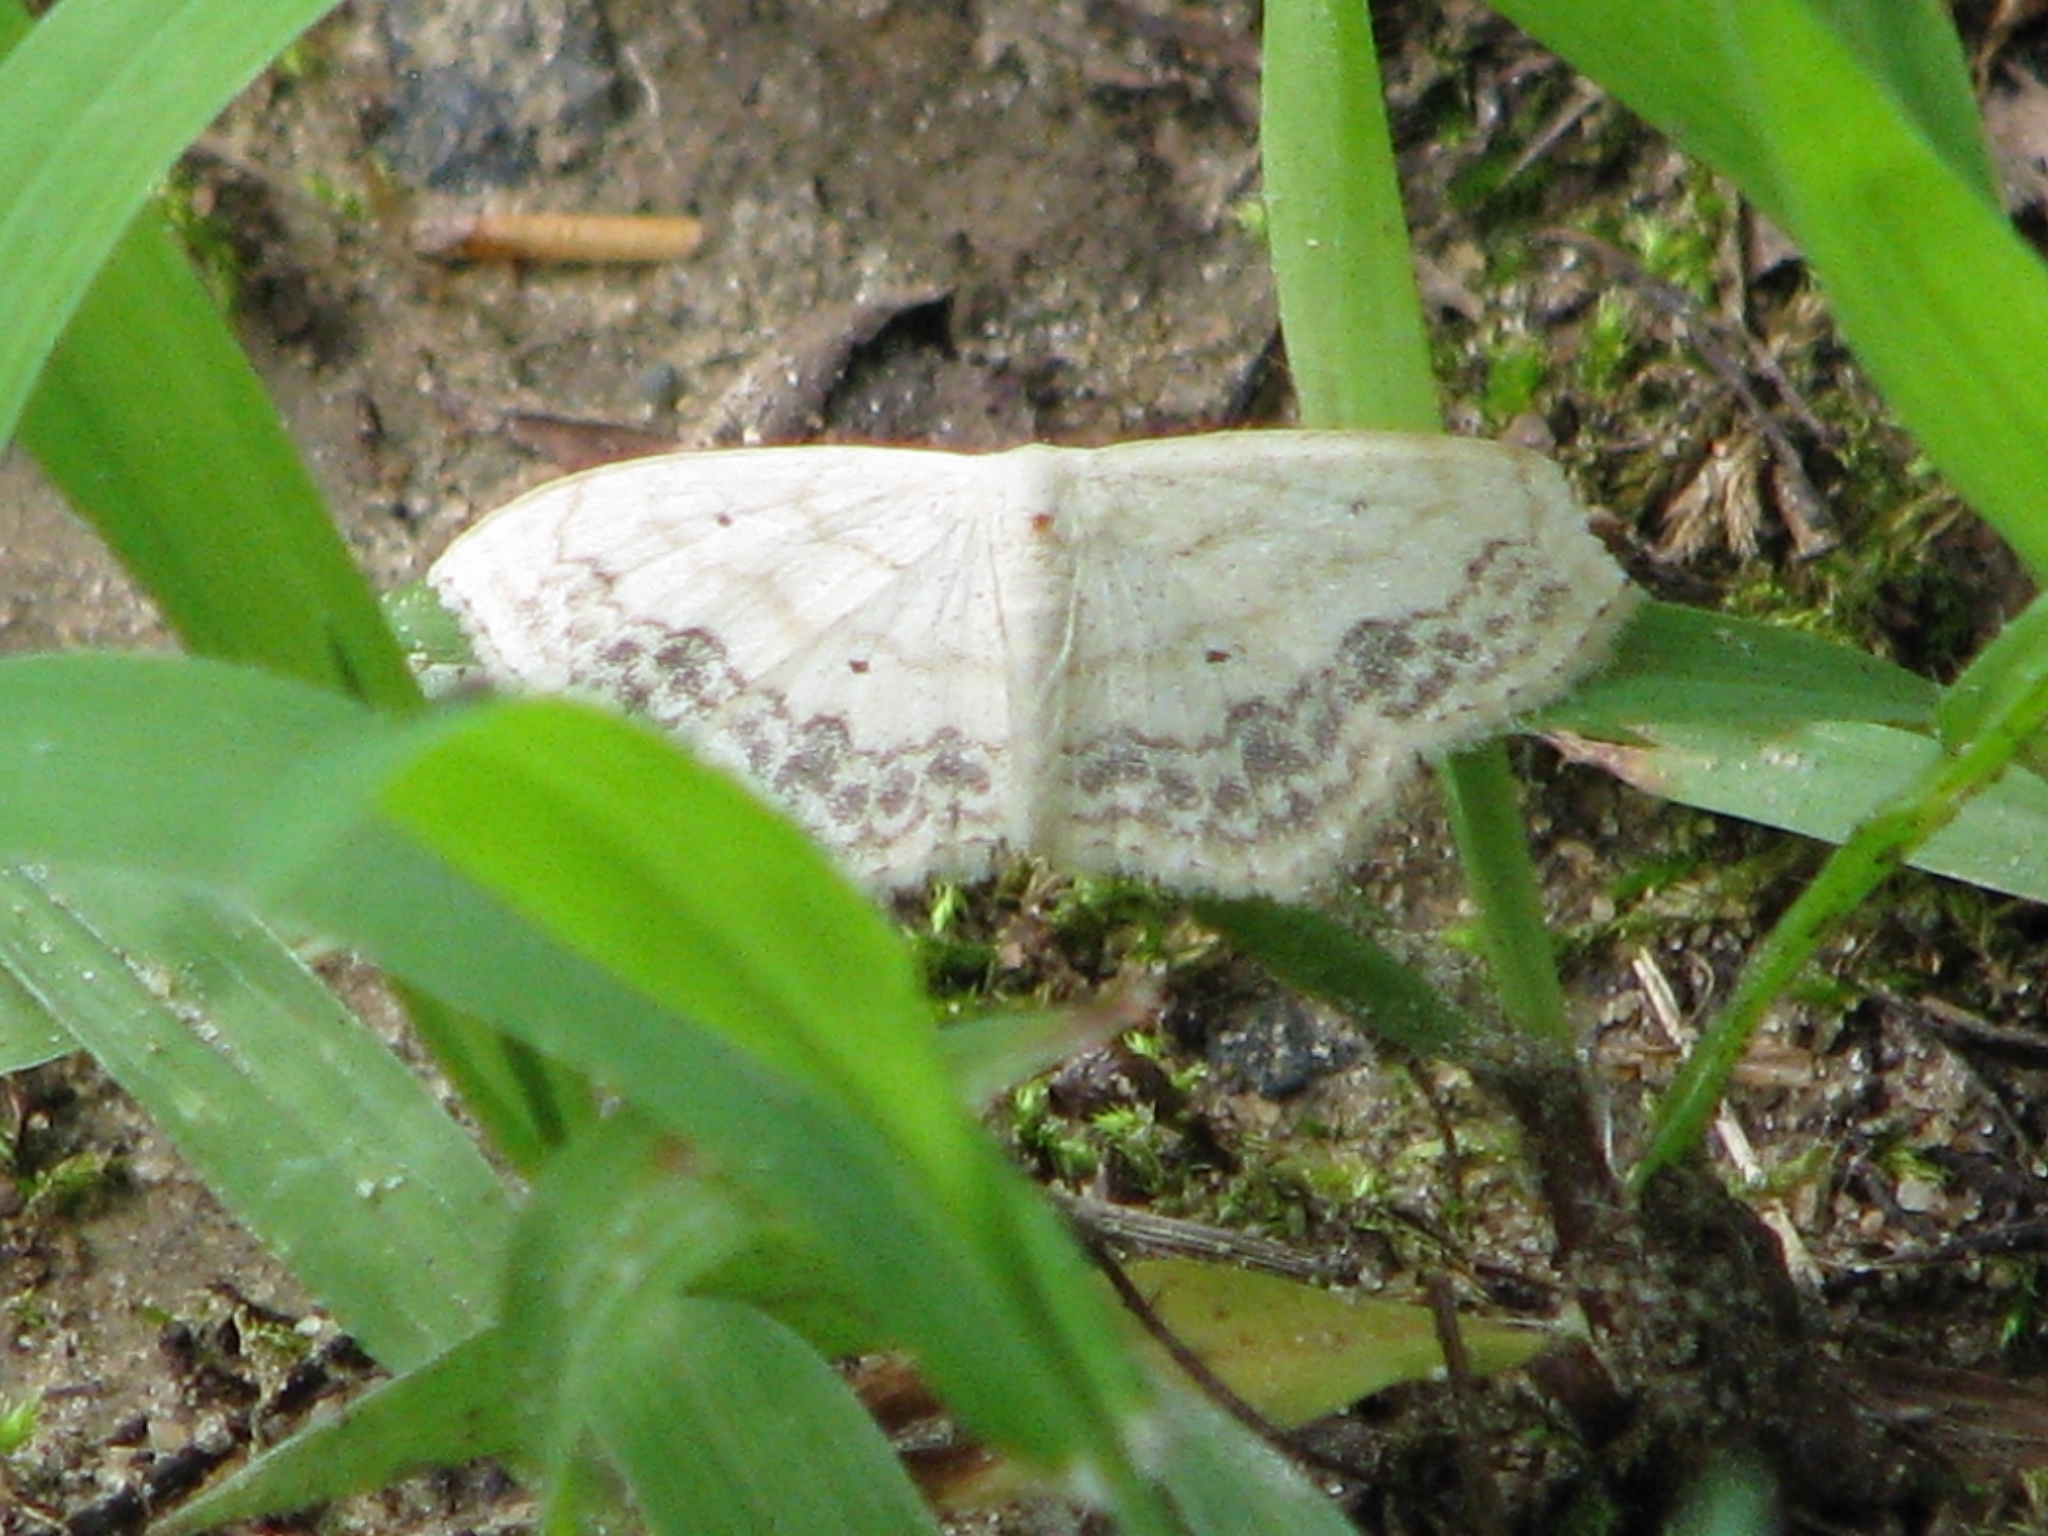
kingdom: Animalia
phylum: Arthropoda
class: Insecta
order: Lepidoptera
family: Geometridae
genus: Scopula
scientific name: Scopula limboundata
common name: Large lace border
